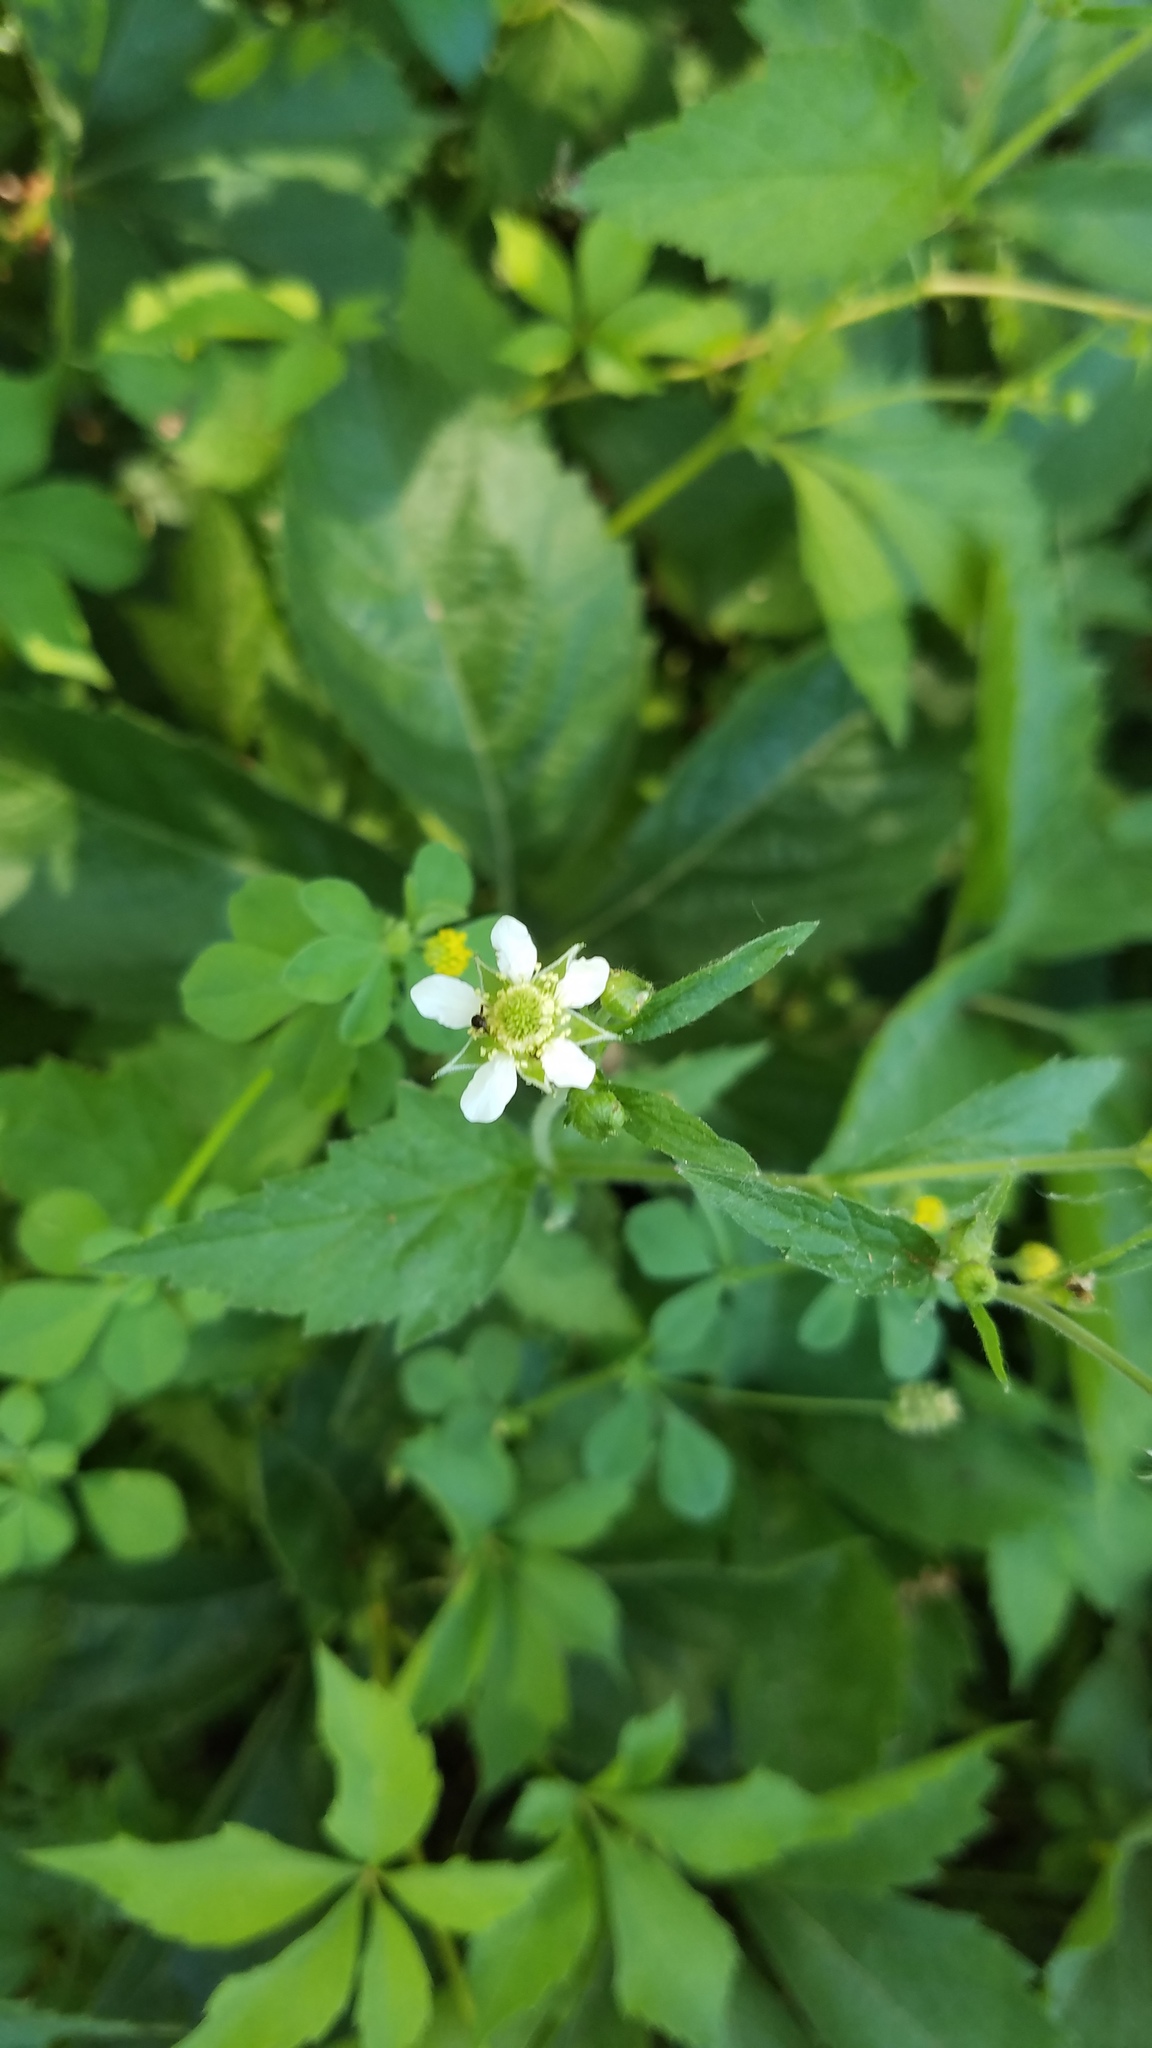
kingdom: Plantae
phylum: Tracheophyta
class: Magnoliopsida
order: Rosales
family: Rosaceae
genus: Geum
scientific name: Geum canadense
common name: White avens
